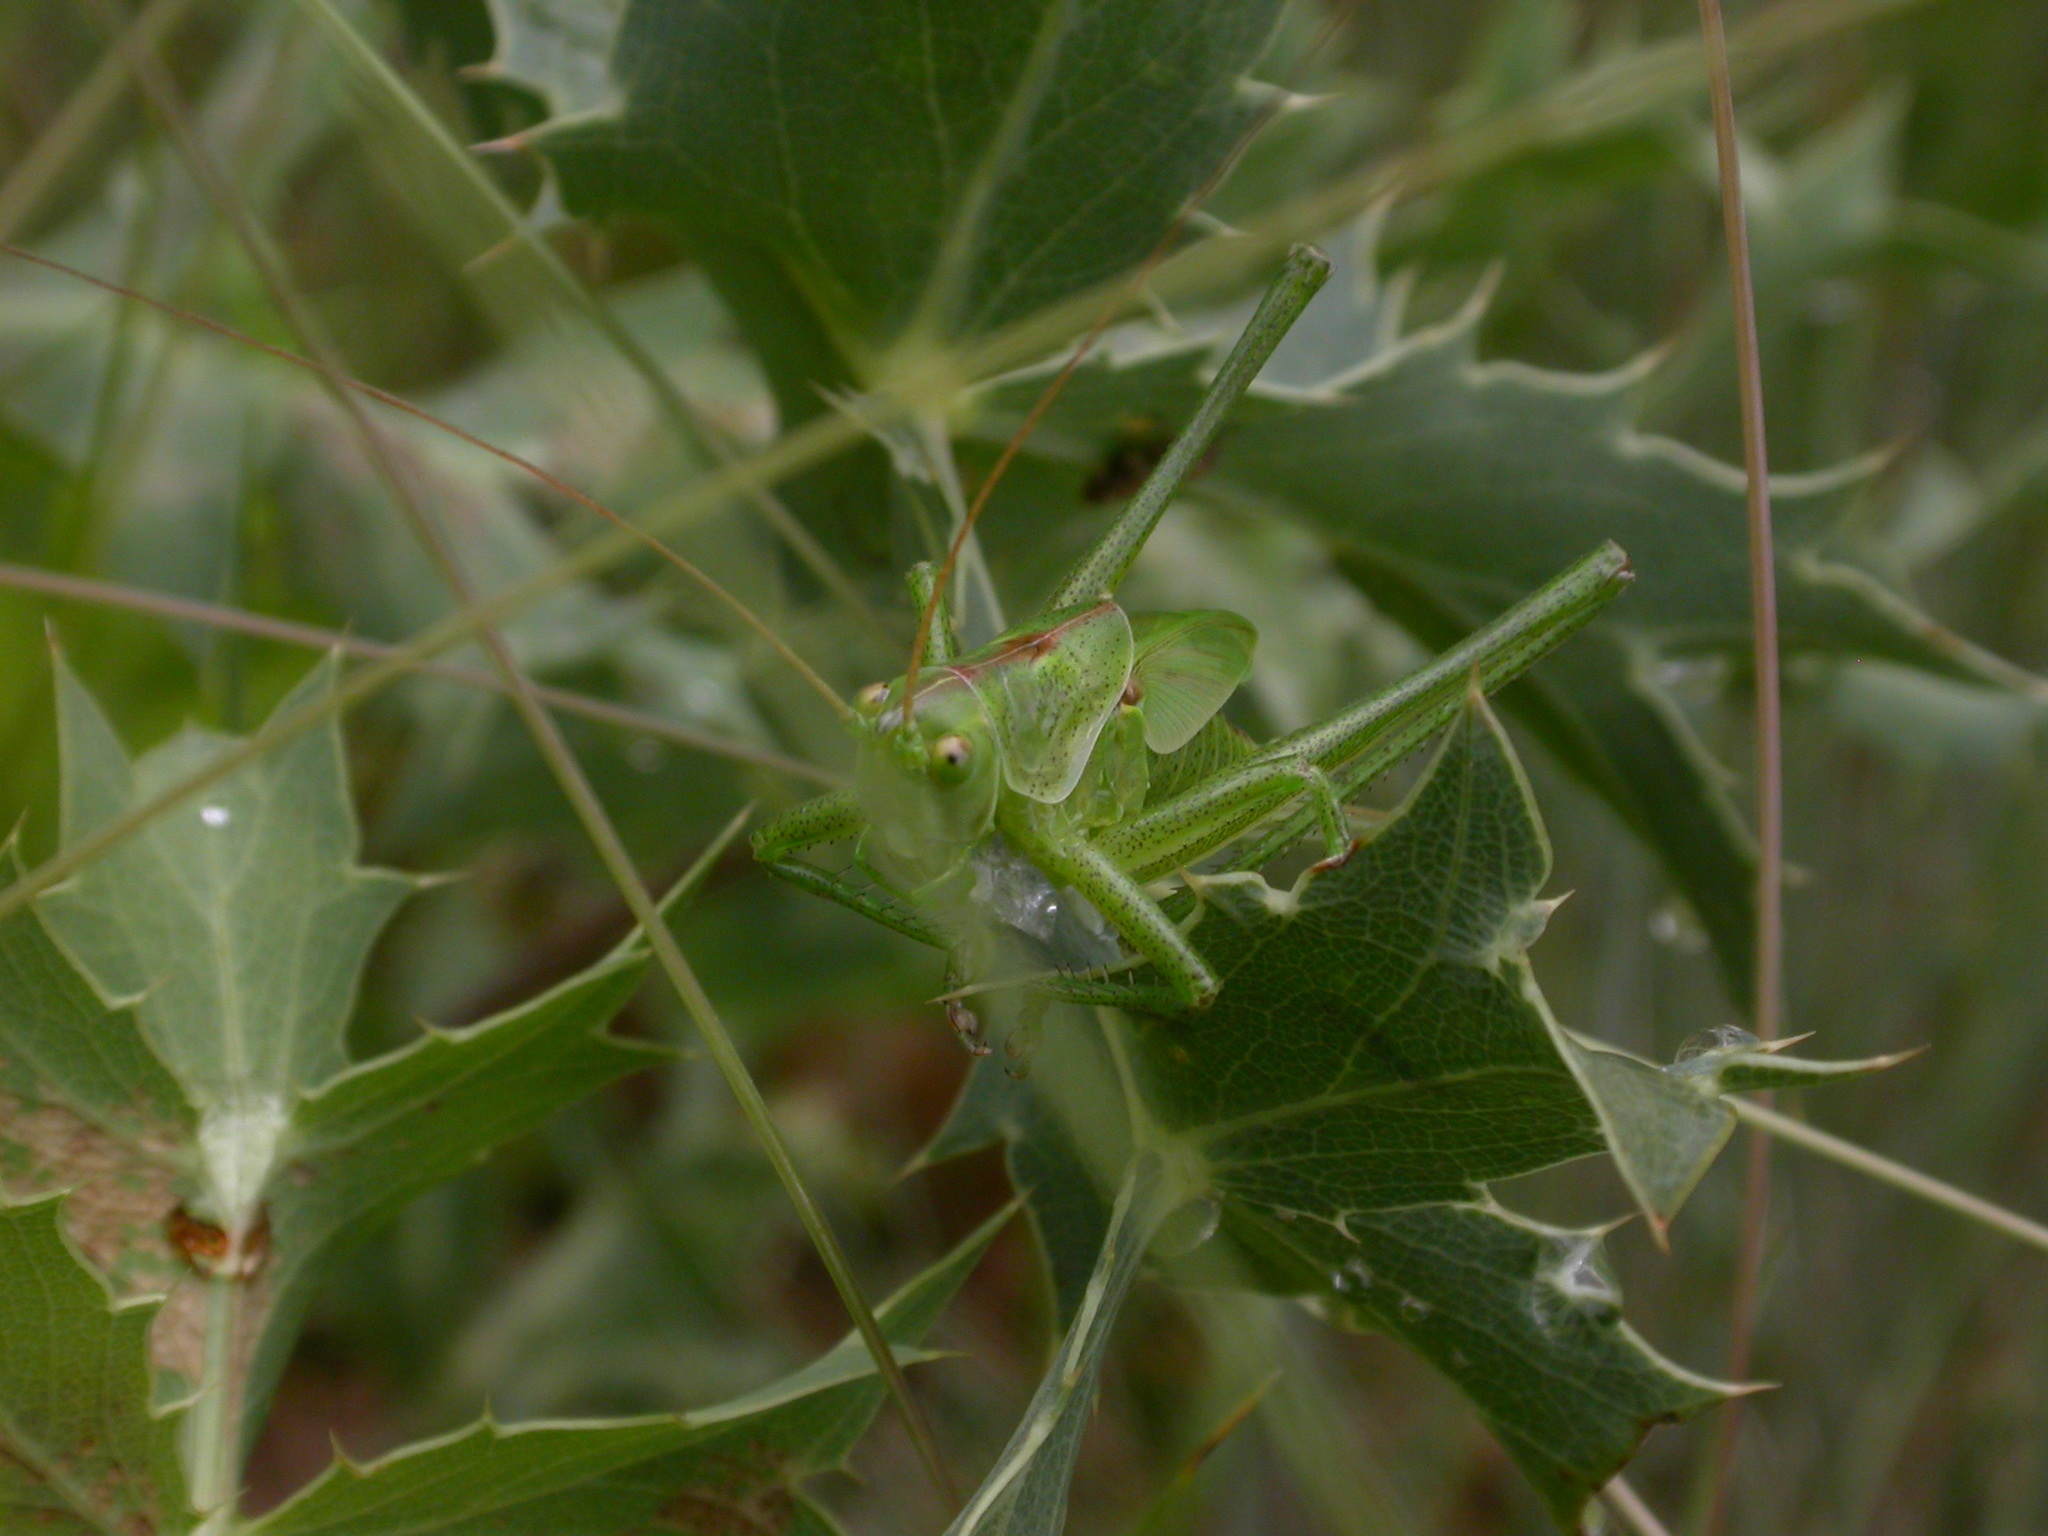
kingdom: Animalia
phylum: Arthropoda
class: Insecta
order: Orthoptera
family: Tettigoniidae
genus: Tettigonia
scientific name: Tettigonia viridissima
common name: Great green bush-cricket
